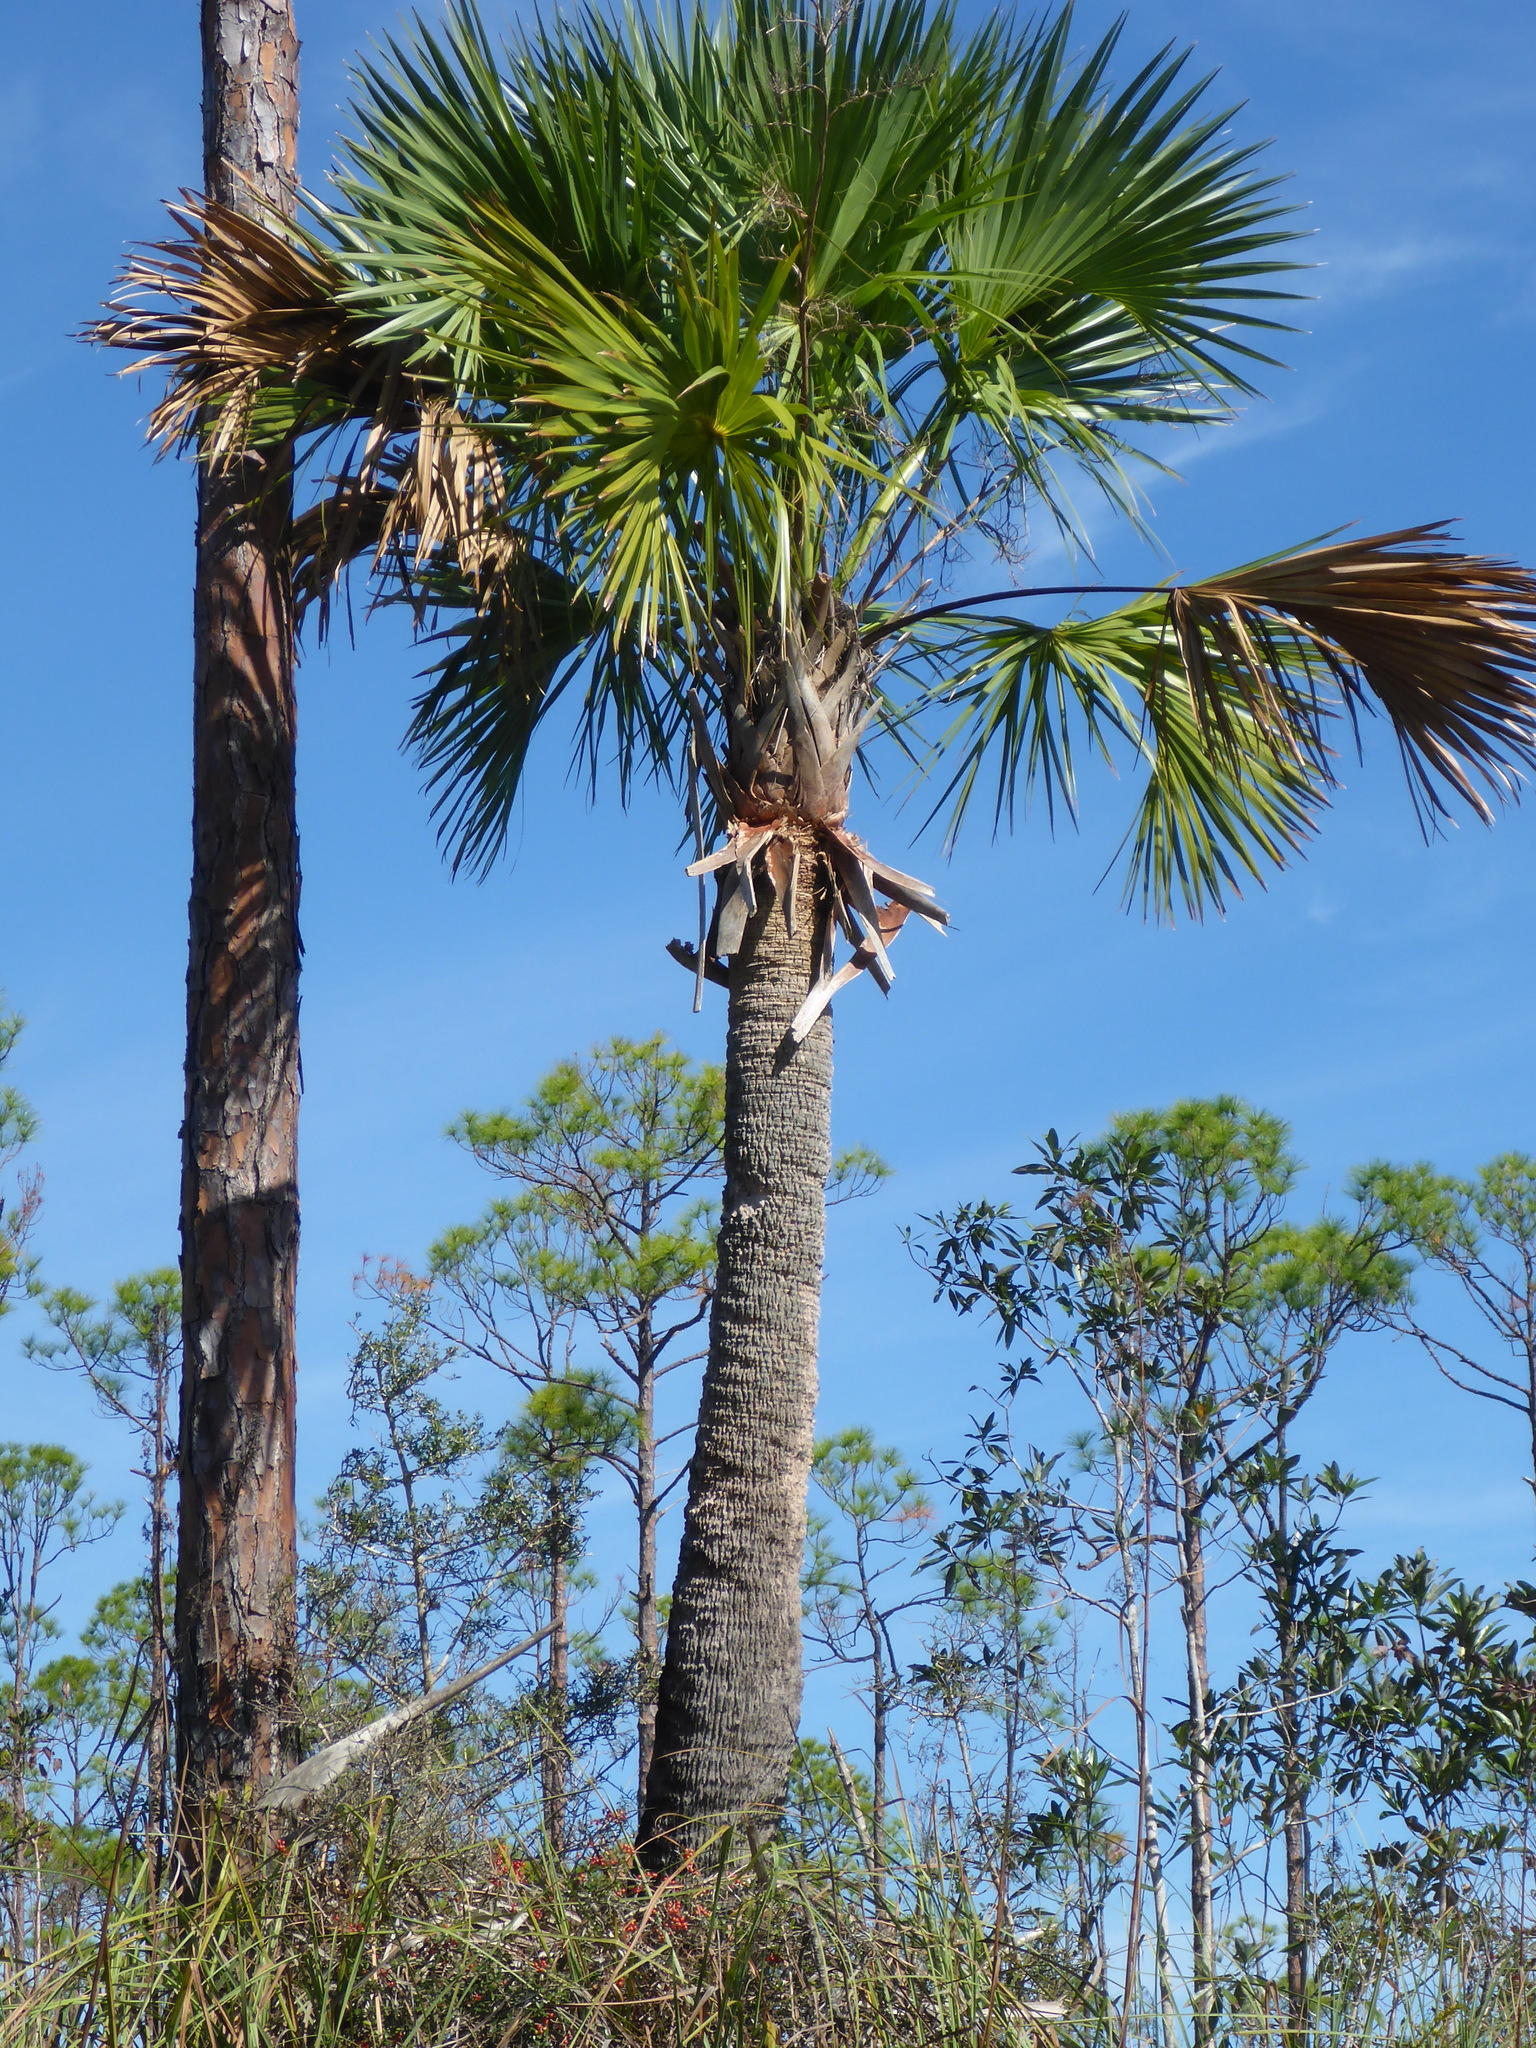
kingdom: Plantae
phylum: Tracheophyta
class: Liliopsida
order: Arecales
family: Arecaceae
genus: Sabal
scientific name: Sabal palmetto
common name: Blue palmetto
